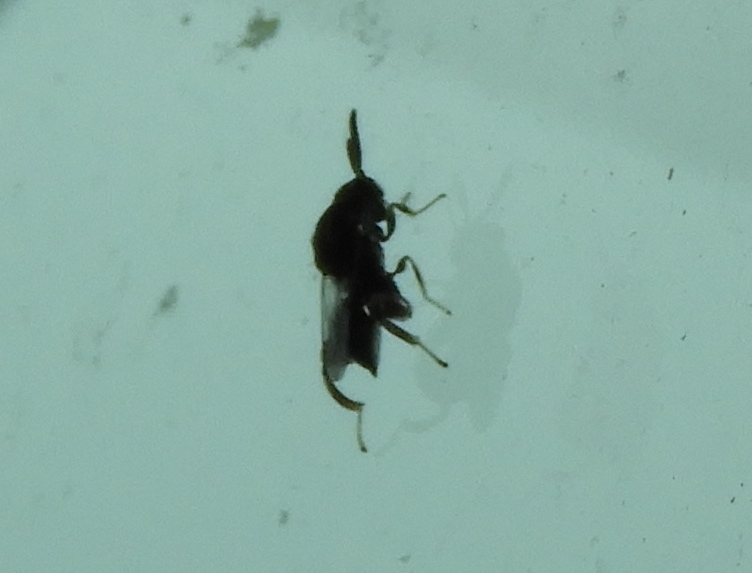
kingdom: Animalia
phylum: Arthropoda
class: Insecta
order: Hymenoptera
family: Chalcididae
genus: Brachymeria
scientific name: Brachymeria podagrica
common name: Chalcid wasp
